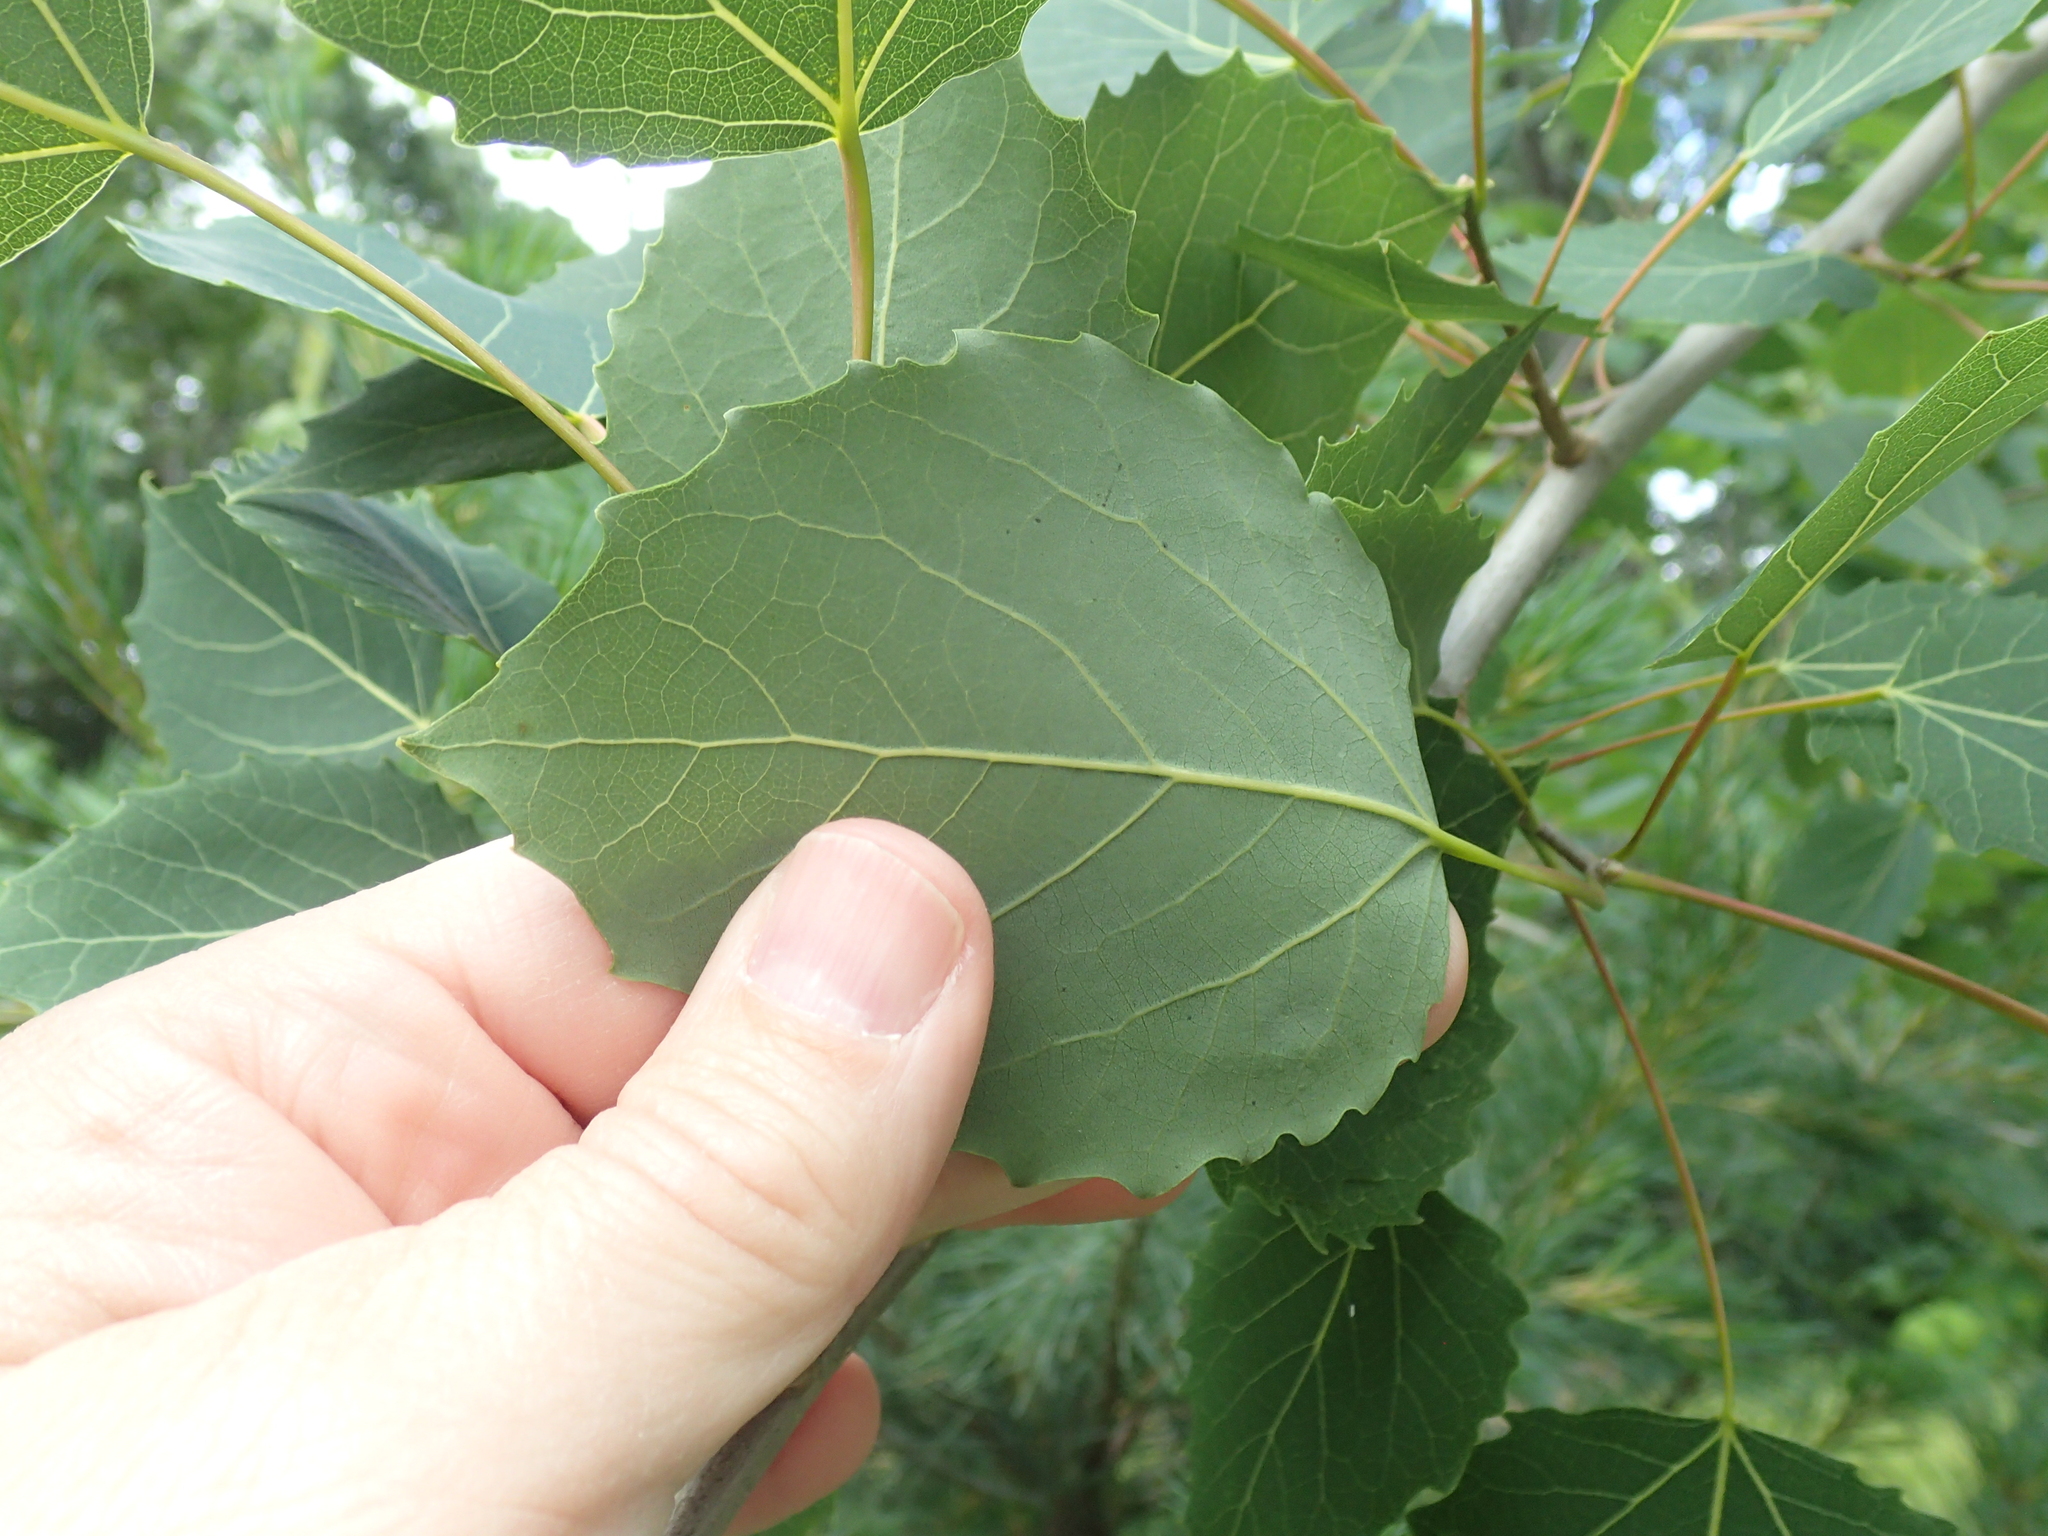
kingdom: Plantae
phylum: Tracheophyta
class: Magnoliopsida
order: Malpighiales
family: Salicaceae
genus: Populus
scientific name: Populus grandidentata
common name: Bigtooth aspen
